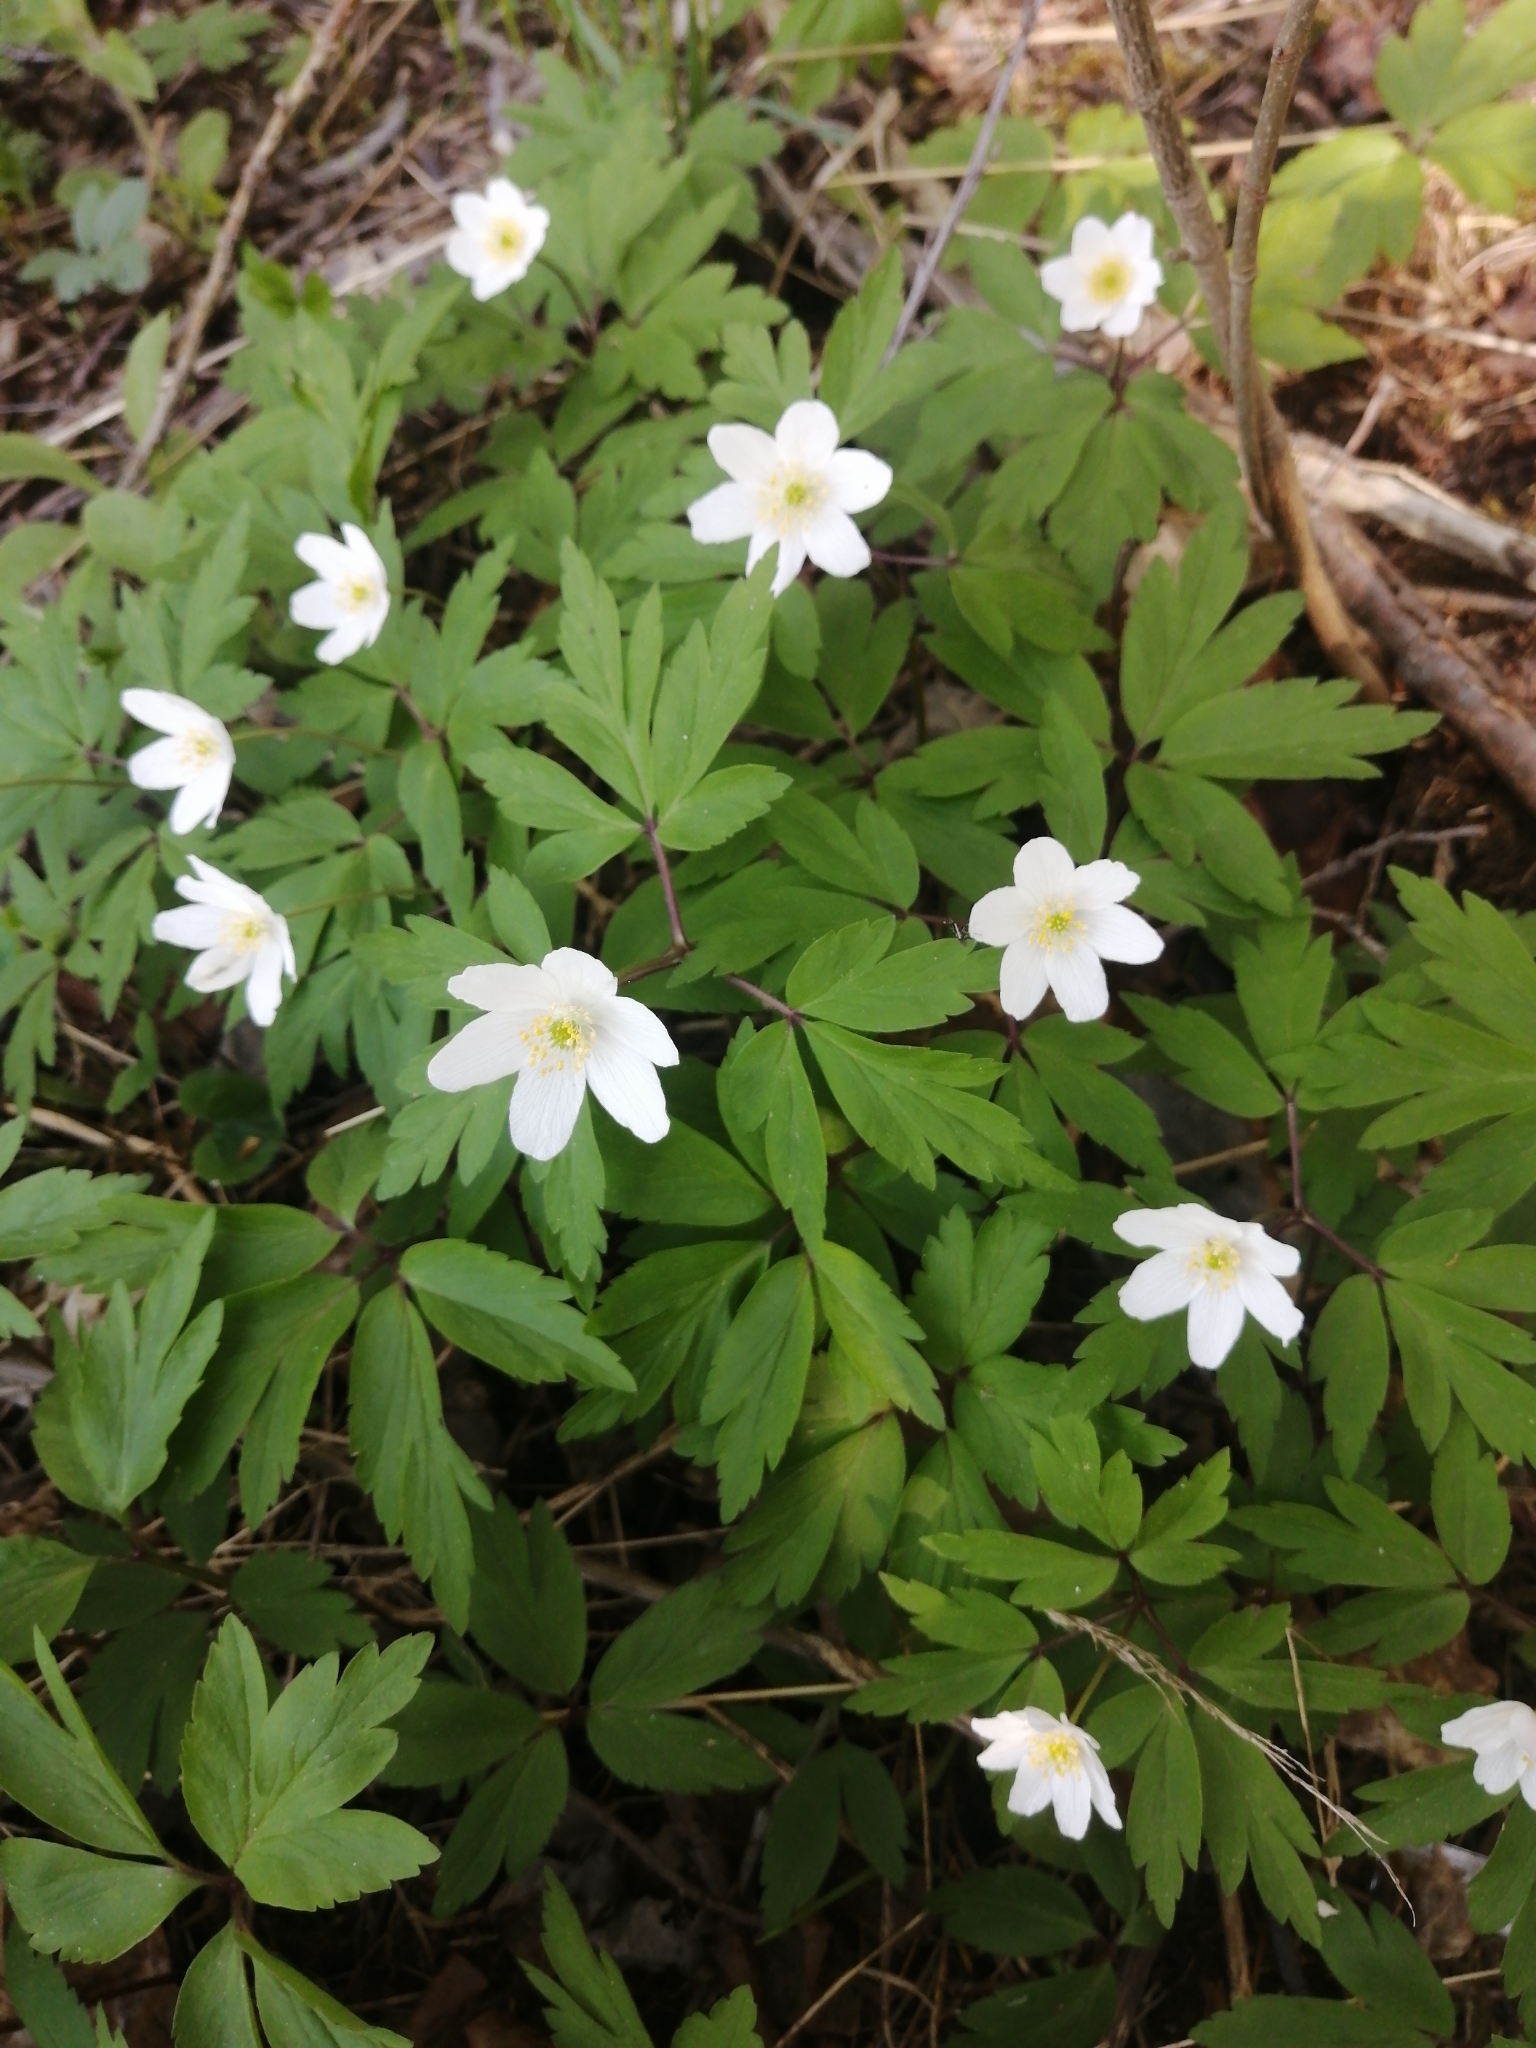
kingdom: Plantae
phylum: Tracheophyta
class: Magnoliopsida
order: Ranunculales
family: Ranunculaceae
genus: Anemone
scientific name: Anemone nemorosa
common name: Wood anemone
